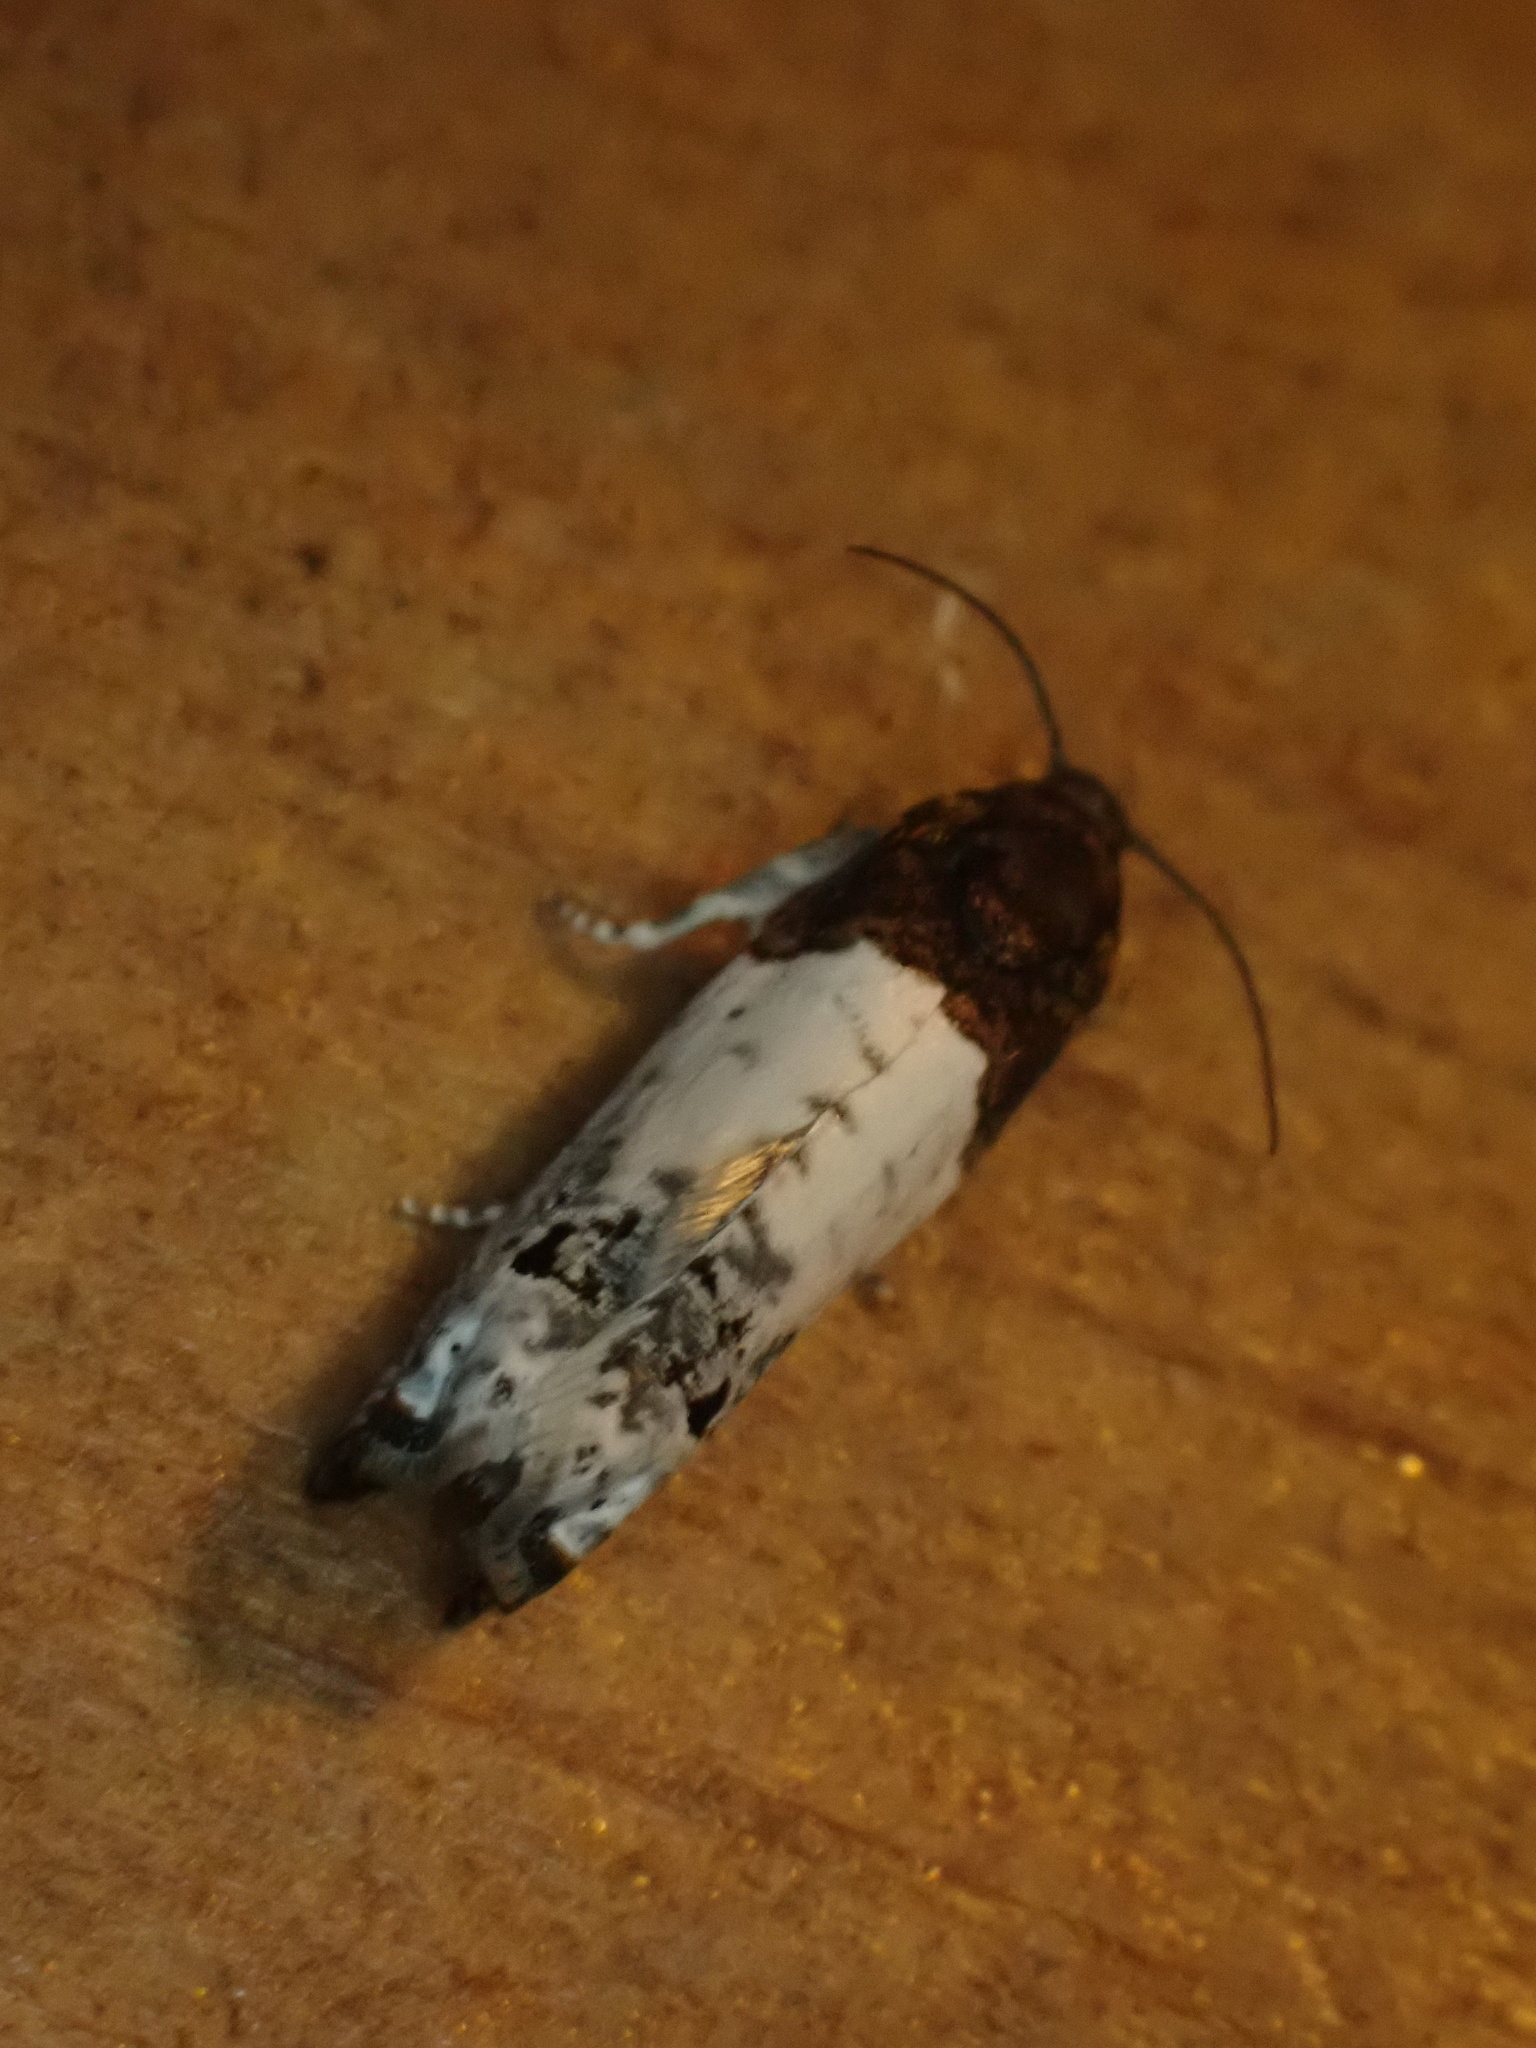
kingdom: Animalia
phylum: Arthropoda
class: Insecta
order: Lepidoptera
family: Tortricidae
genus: Epiblema
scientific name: Epiblema scudderiana
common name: Goldenrod gall moth
